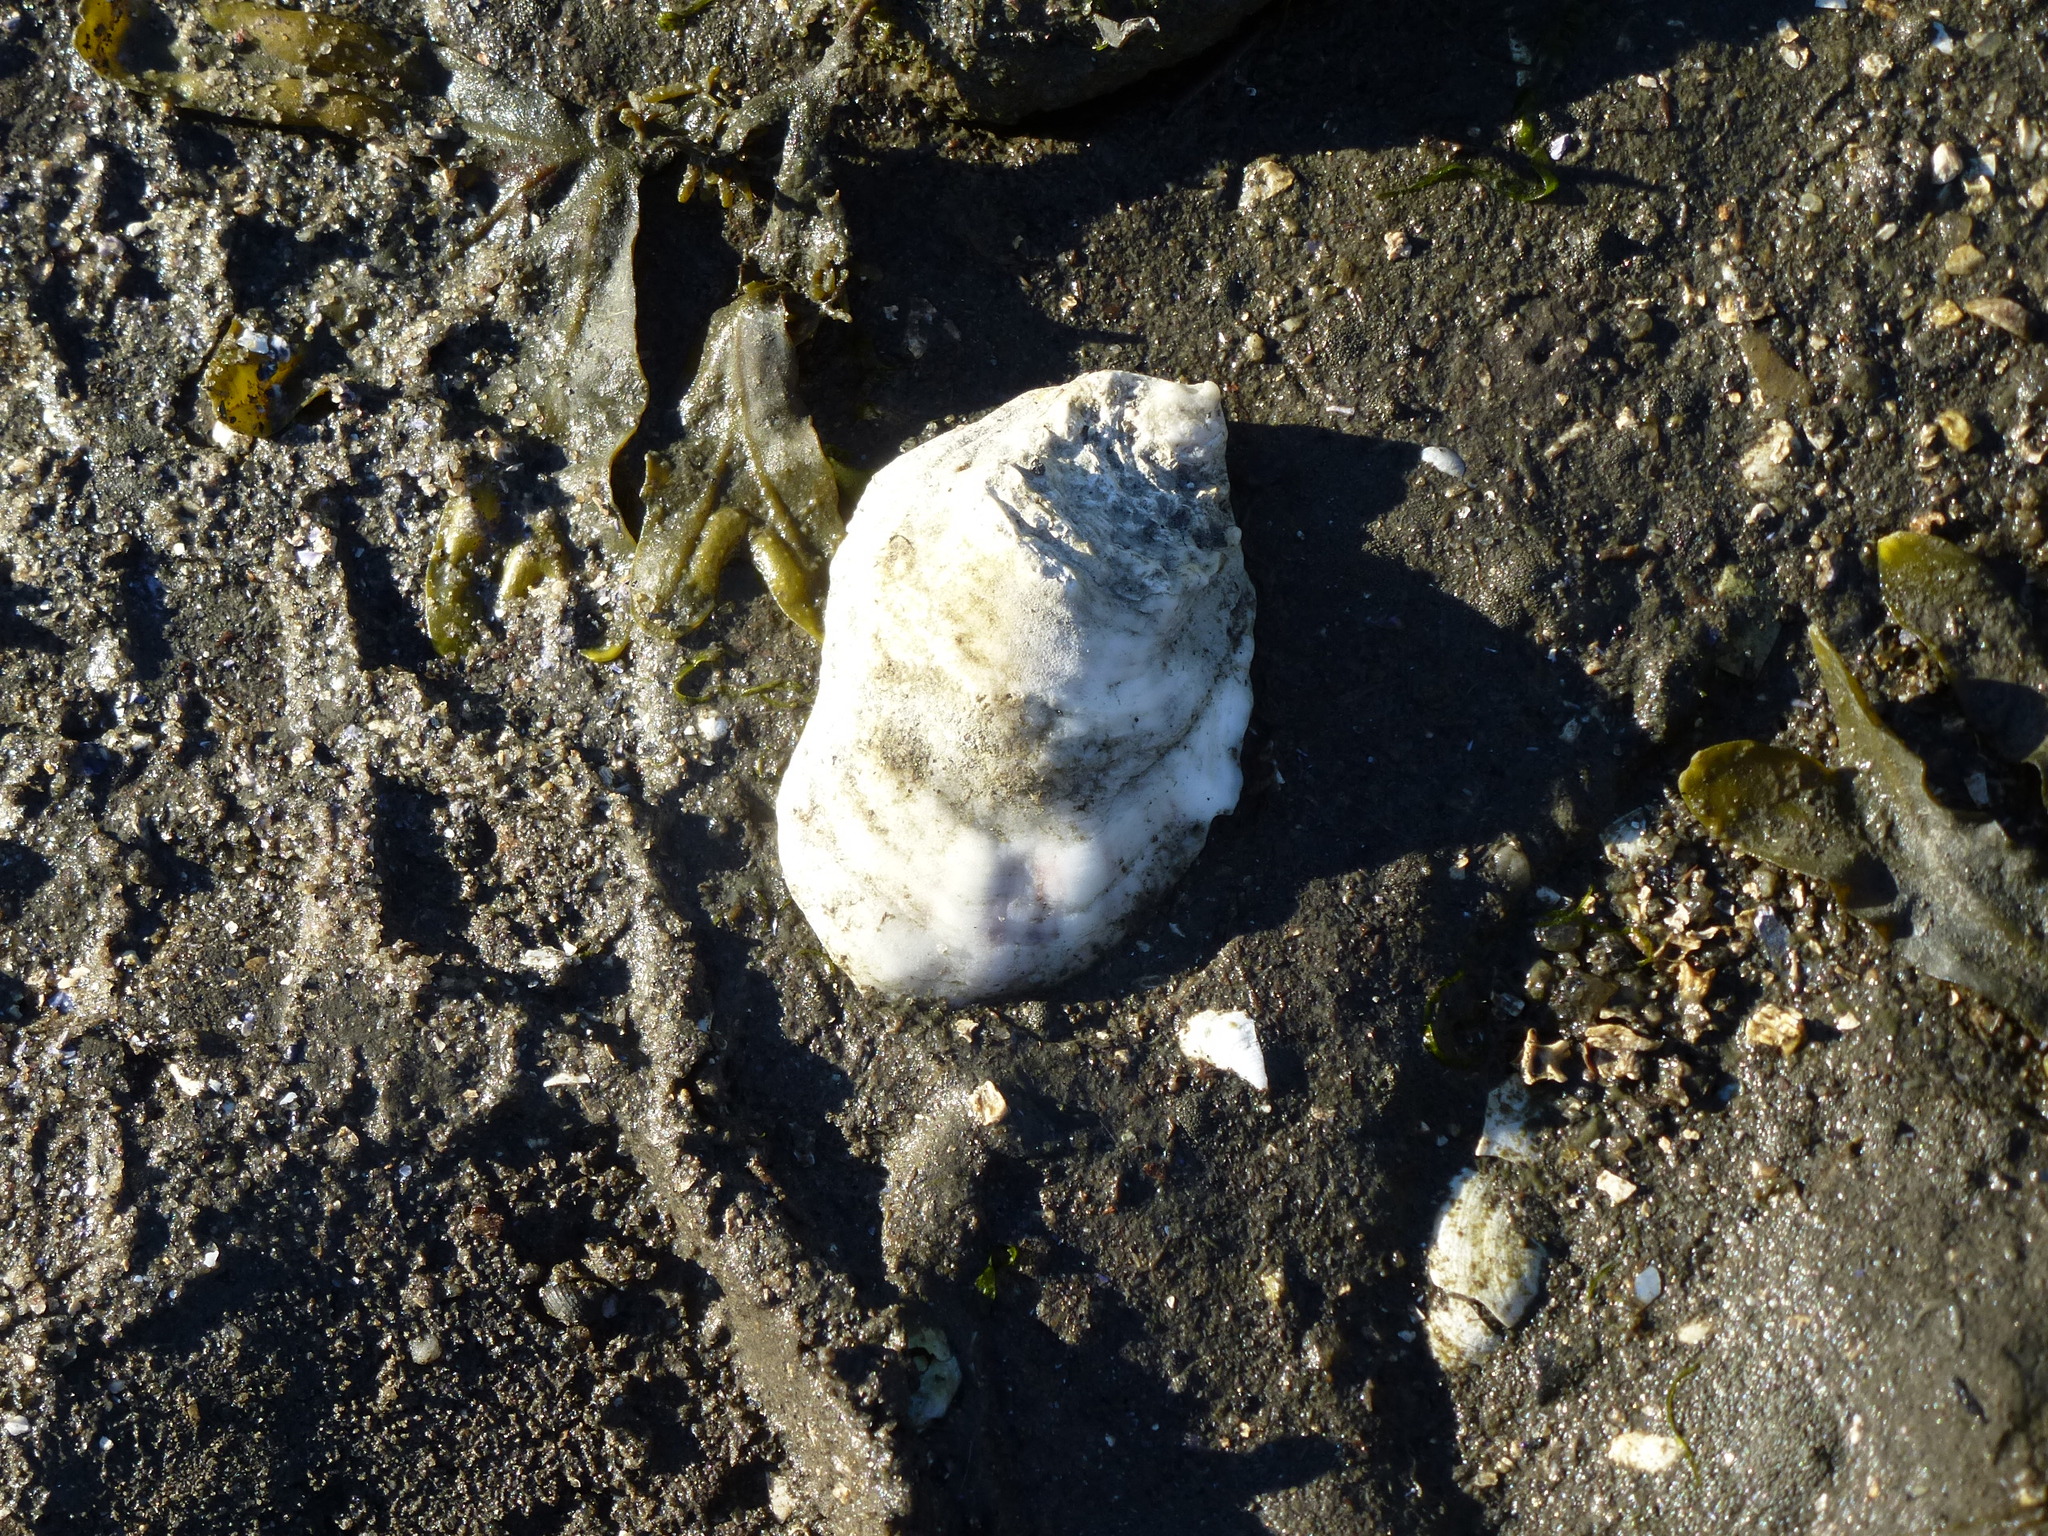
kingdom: Animalia
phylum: Mollusca
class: Bivalvia
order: Ostreida
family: Ostreidae
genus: Crassostrea
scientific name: Crassostrea virginica
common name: American oyster
